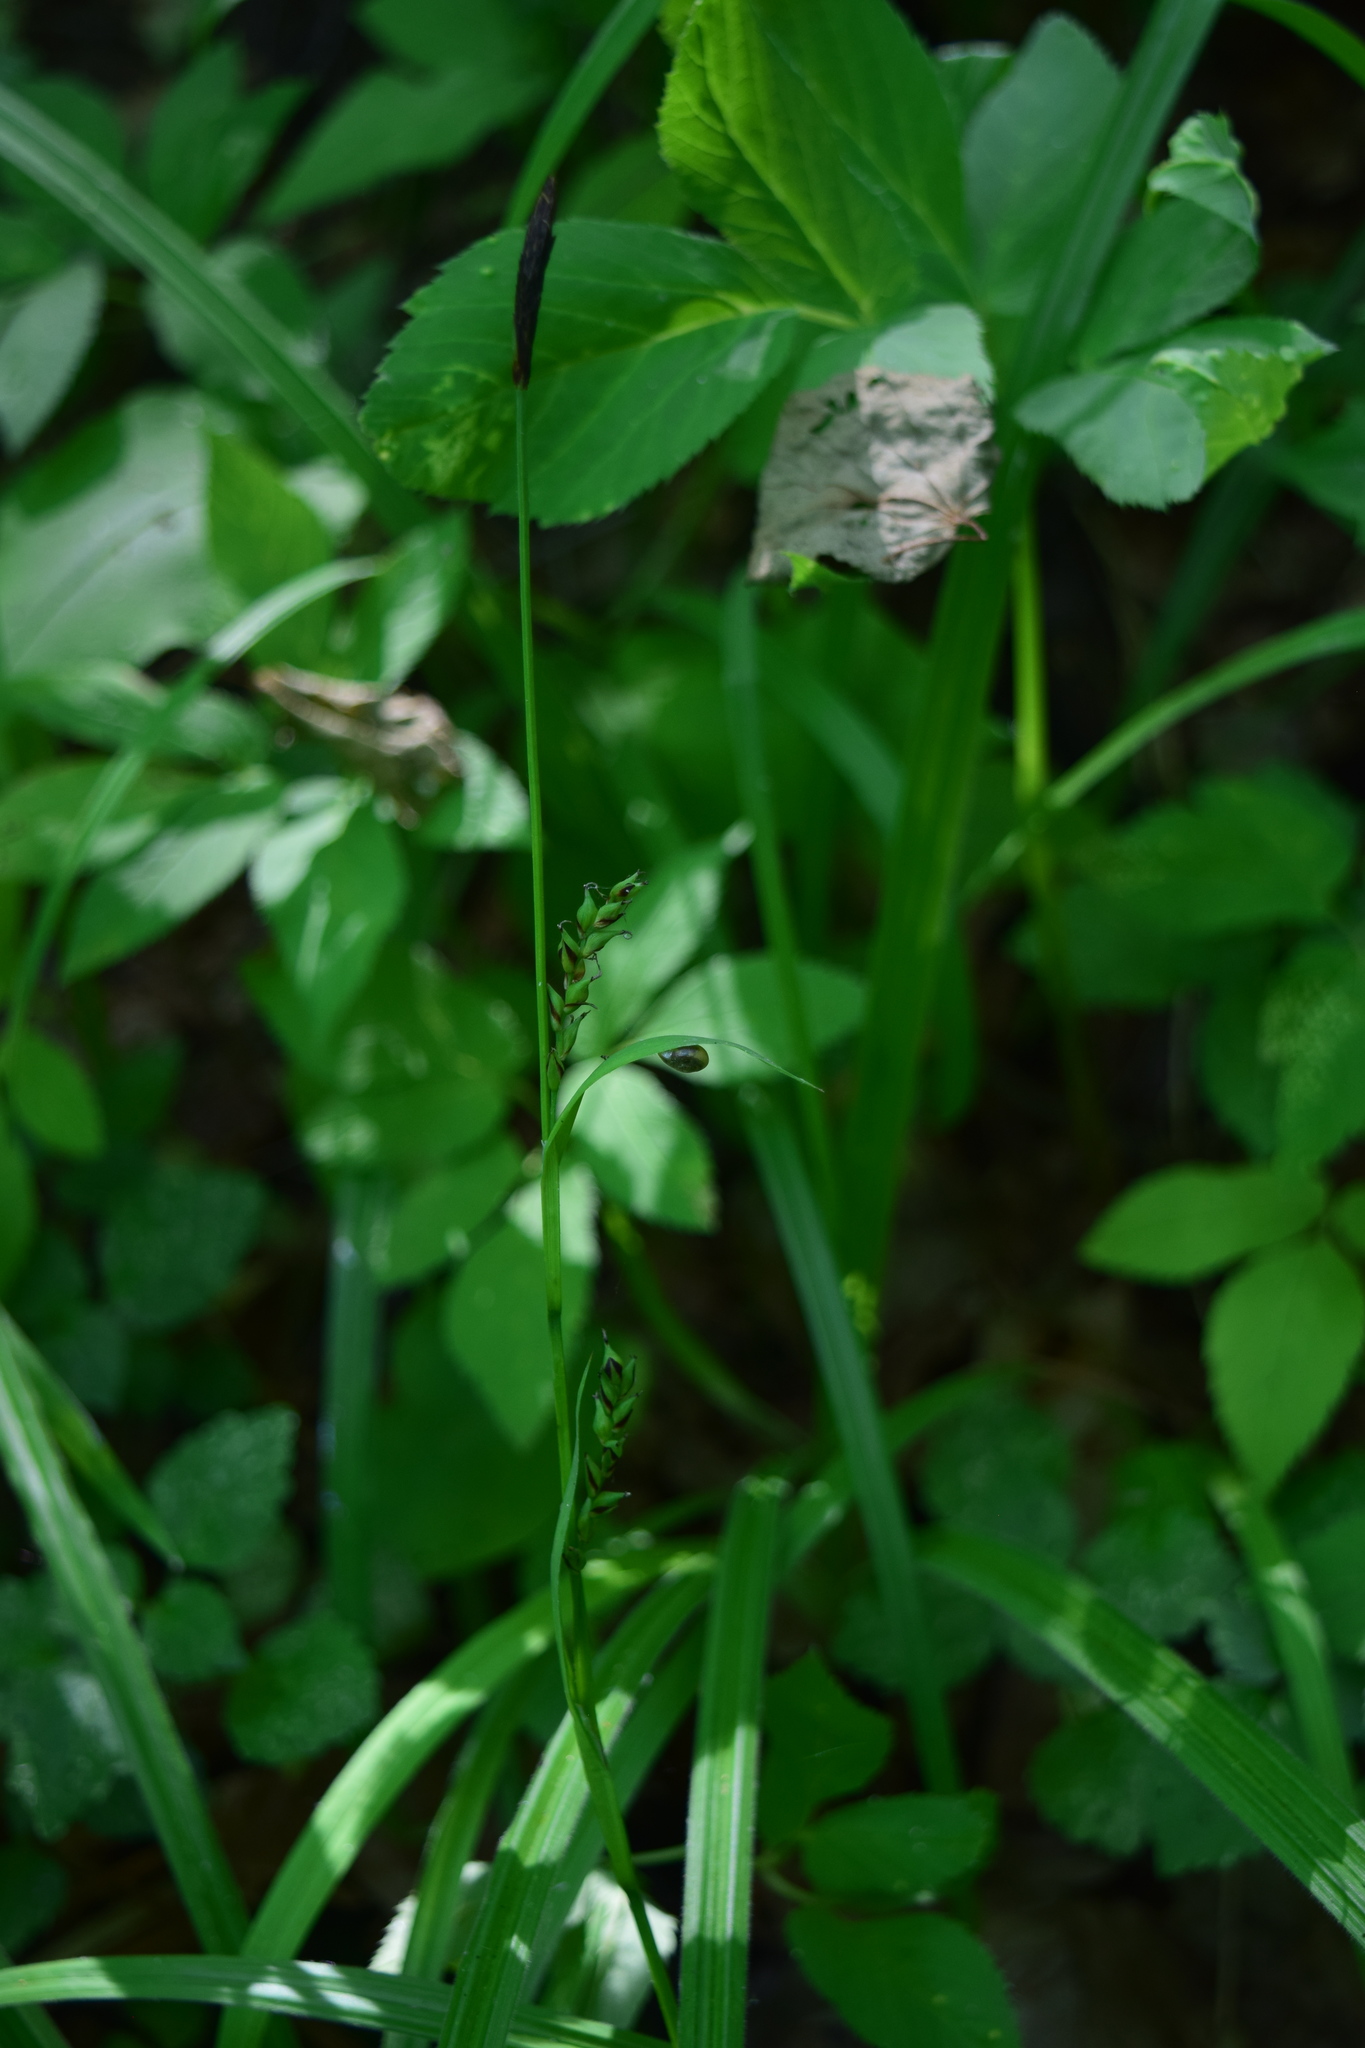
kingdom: Plantae
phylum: Tracheophyta
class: Liliopsida
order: Poales
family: Cyperaceae
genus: Carex
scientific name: Carex pilosa
